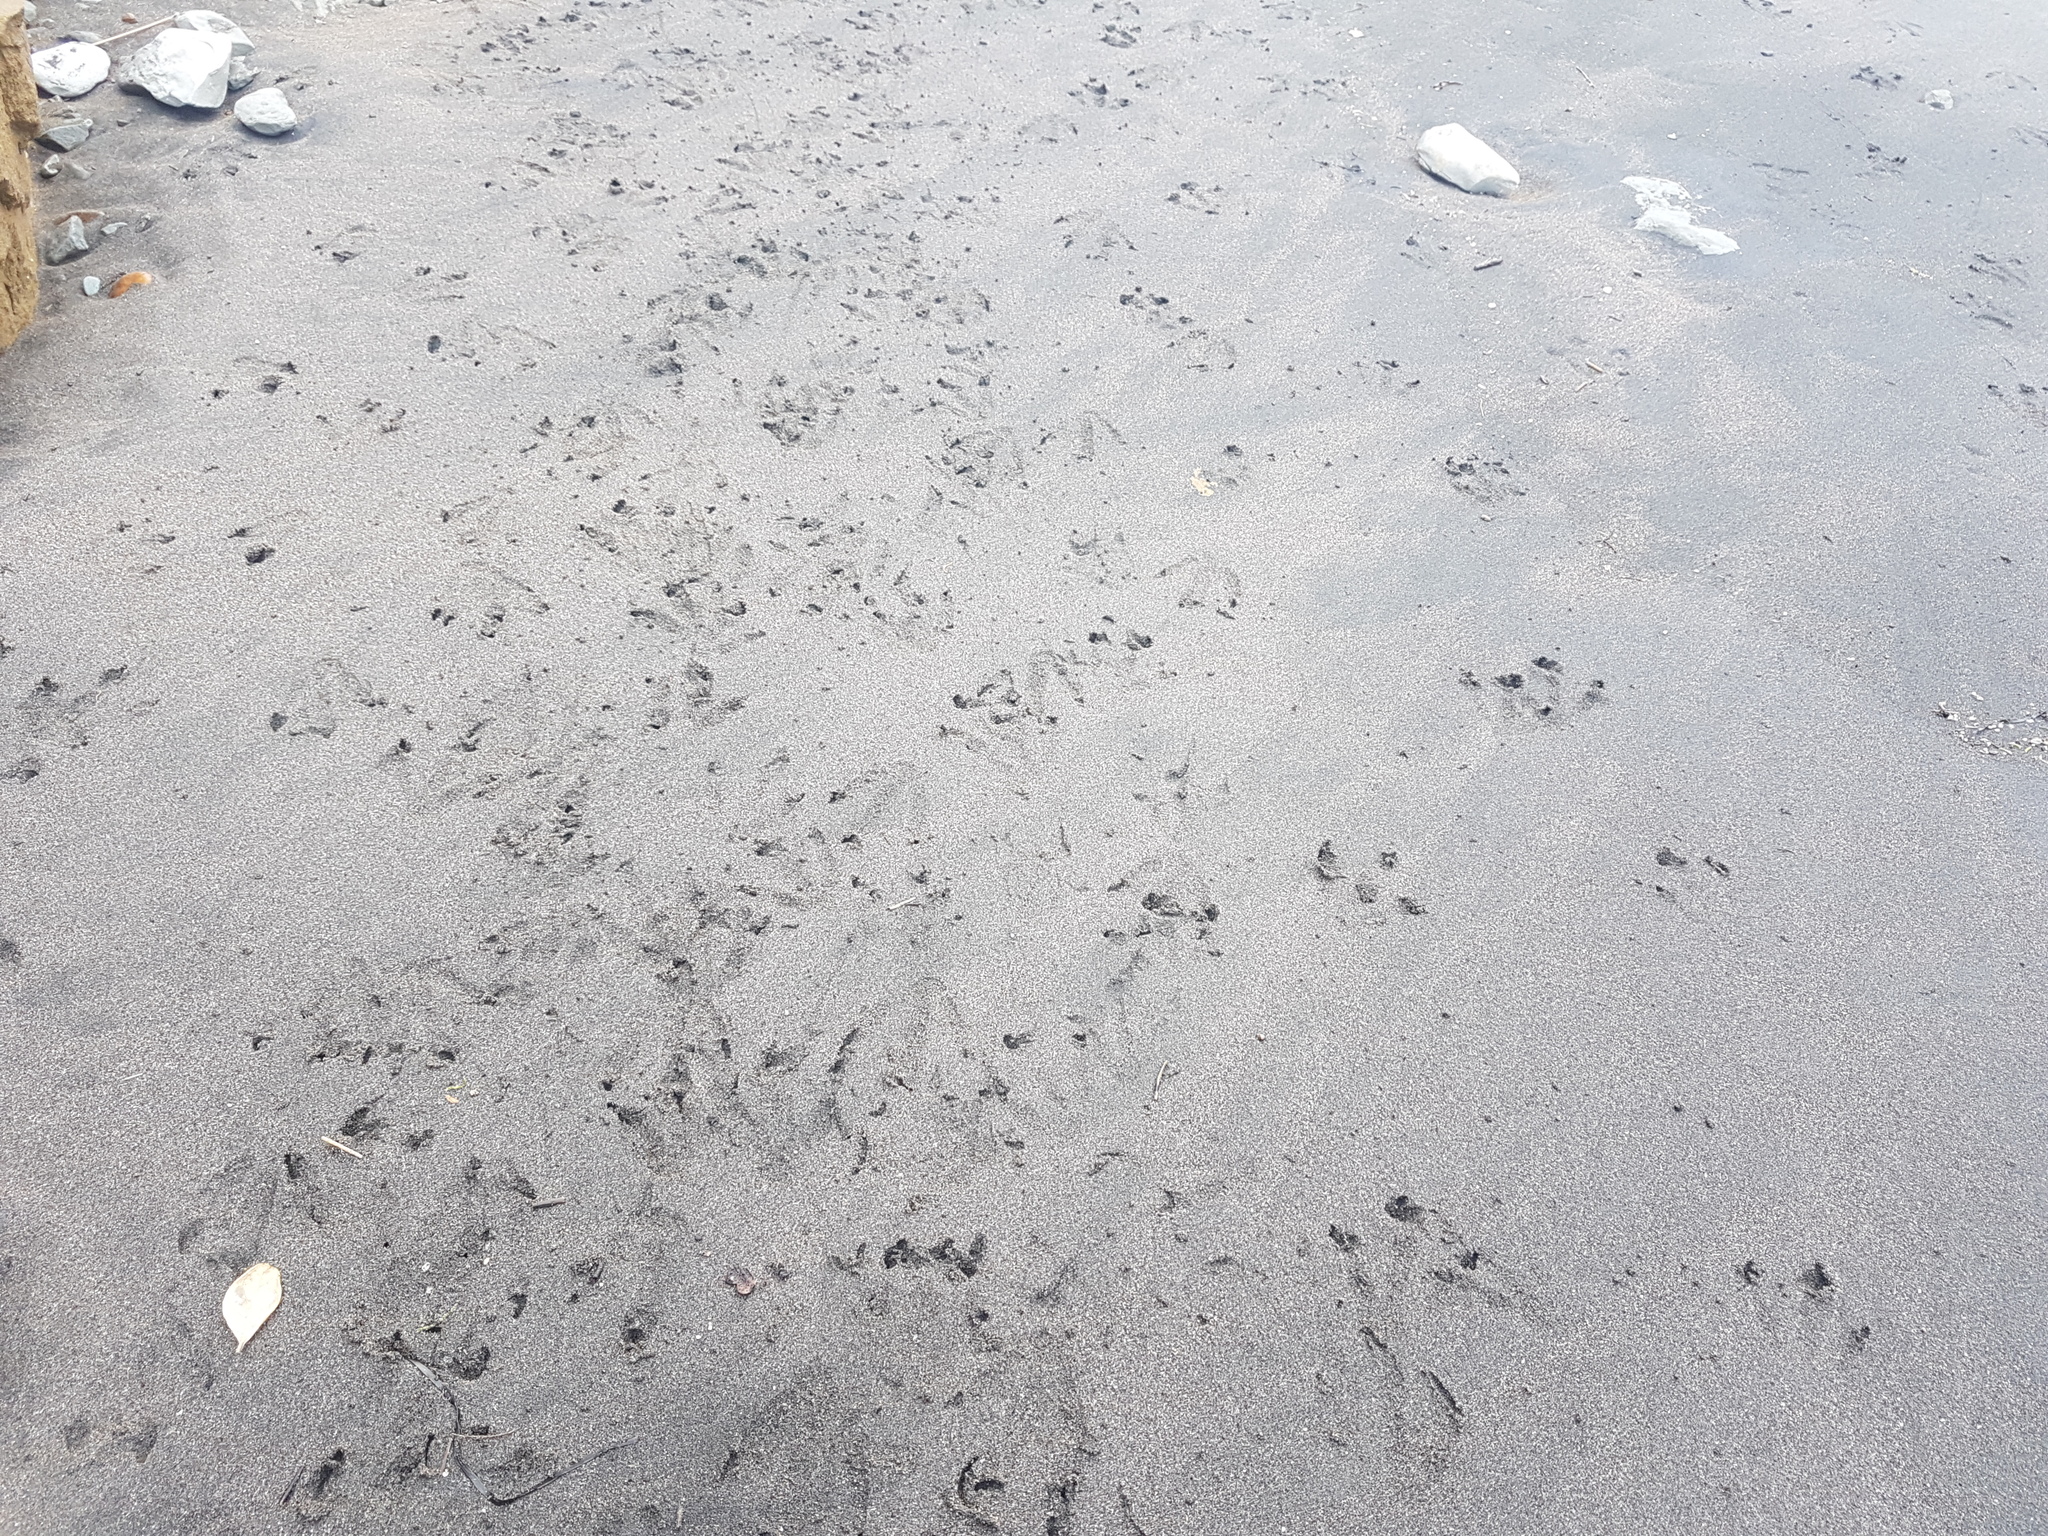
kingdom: Animalia
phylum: Chordata
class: Aves
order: Sphenisciformes
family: Spheniscidae
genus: Eudyptula
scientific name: Eudyptula minor
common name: Little penguin
